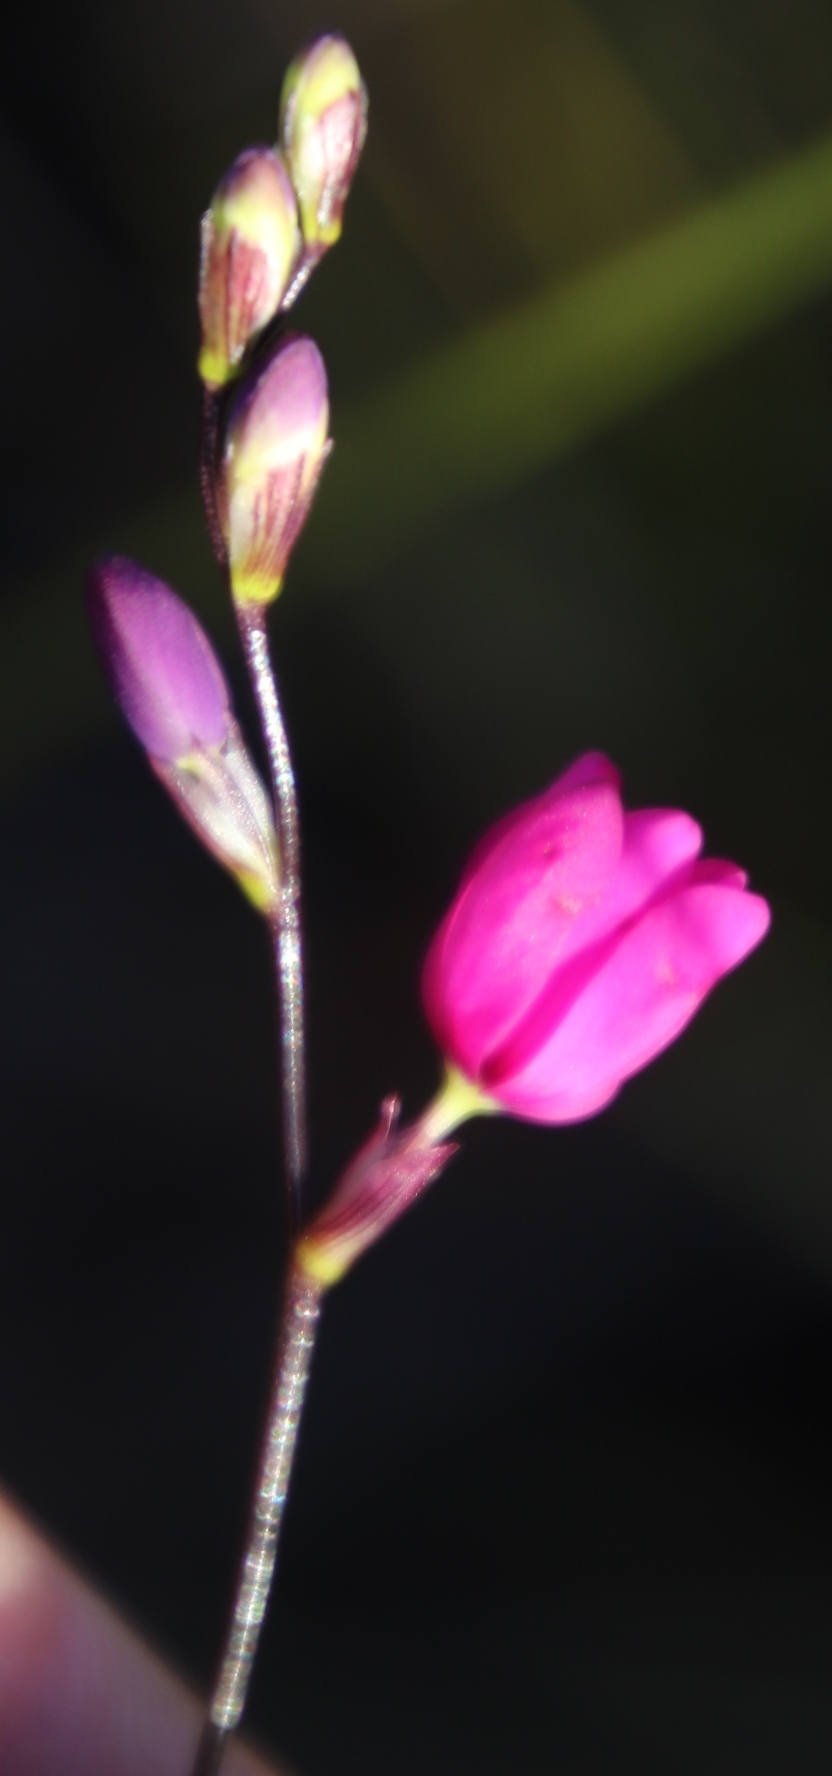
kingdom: Plantae
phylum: Tracheophyta
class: Liliopsida
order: Asparagales
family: Iridaceae
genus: Ixia
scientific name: Ixia stricta
